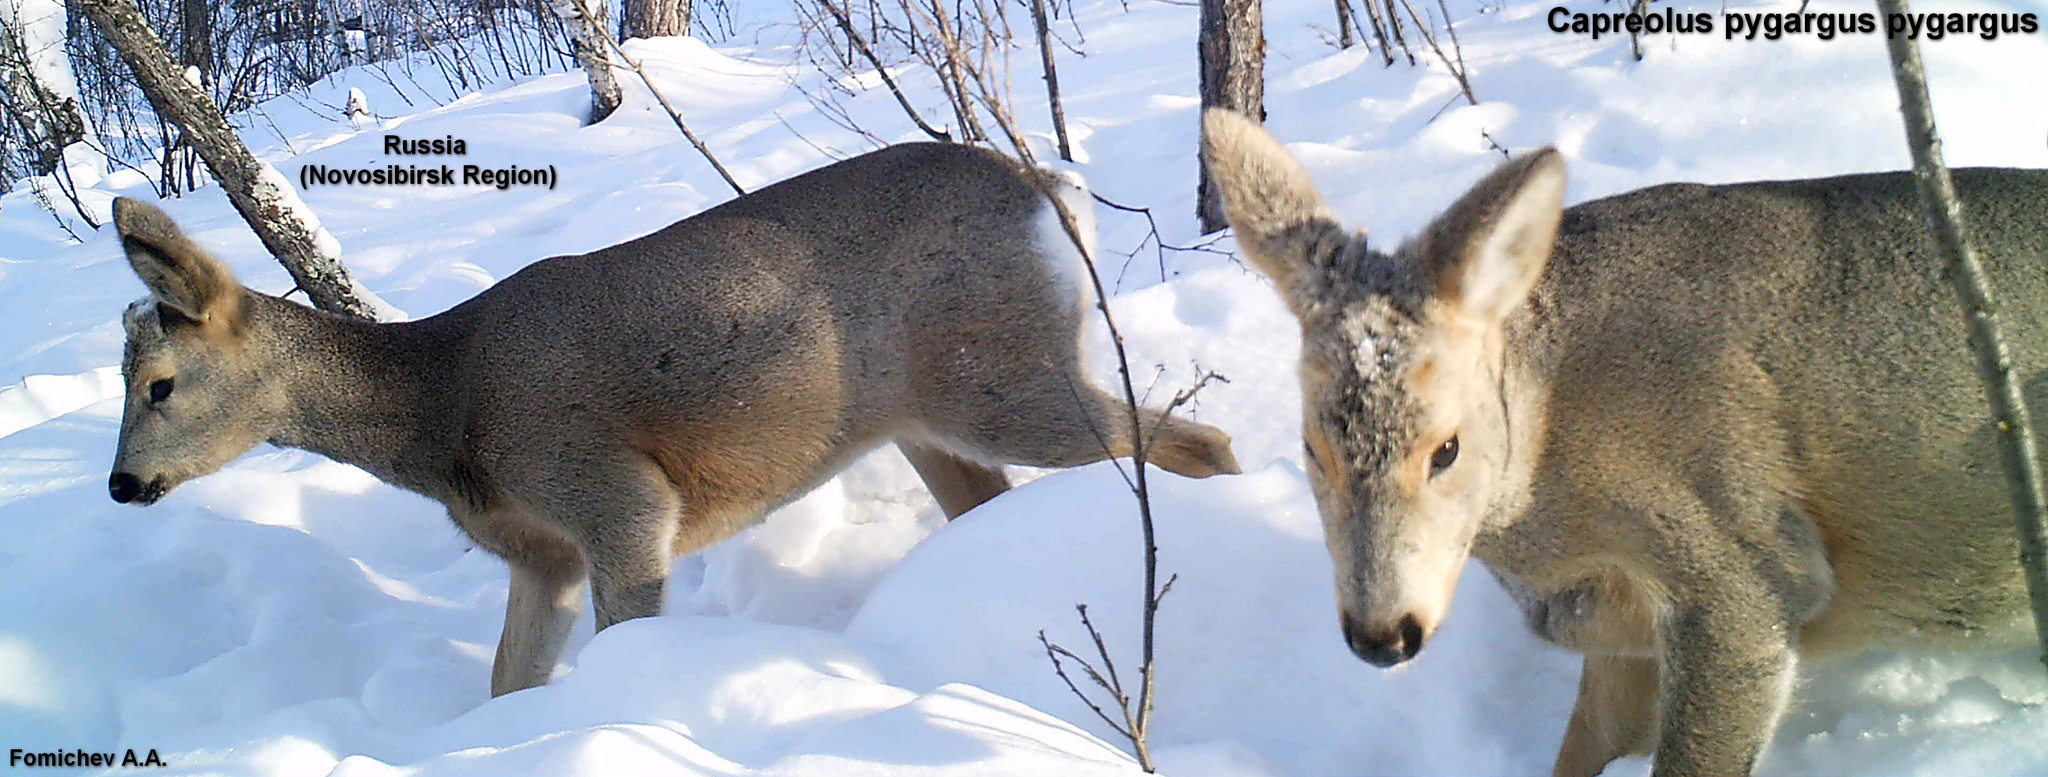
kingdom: Animalia
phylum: Chordata
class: Mammalia
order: Artiodactyla
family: Cervidae
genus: Capreolus
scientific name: Capreolus pygargus
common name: Siberian roe
